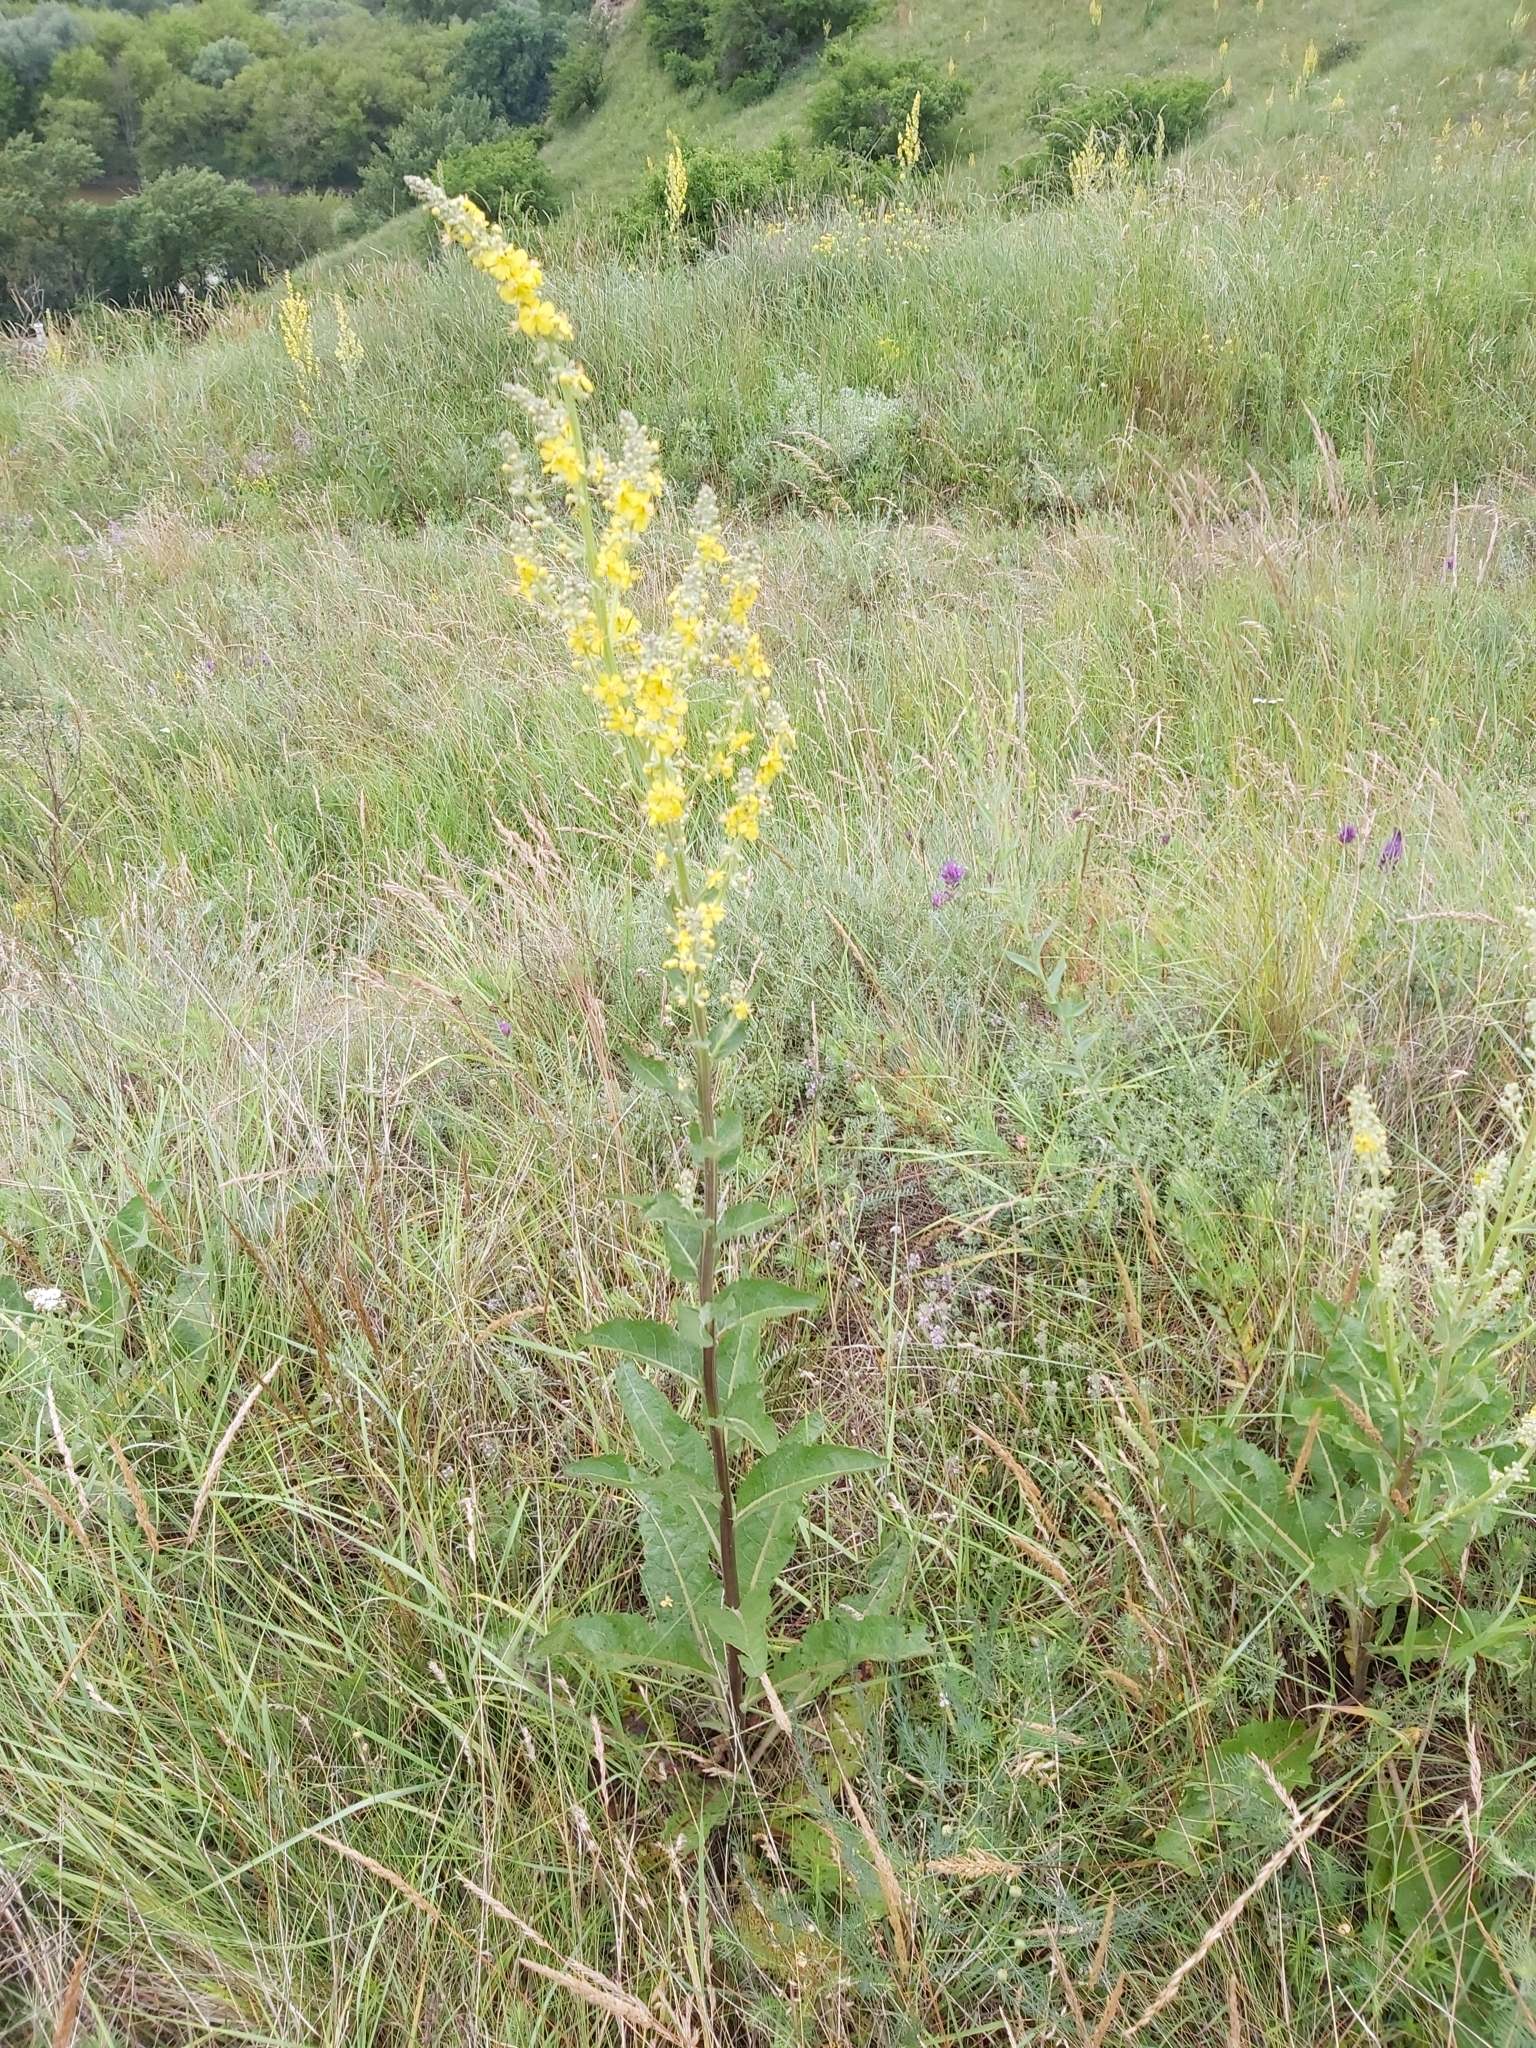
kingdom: Plantae
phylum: Tracheophyta
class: Magnoliopsida
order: Lamiales
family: Scrophulariaceae
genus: Verbascum
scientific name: Verbascum lychnitis
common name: White mullein
